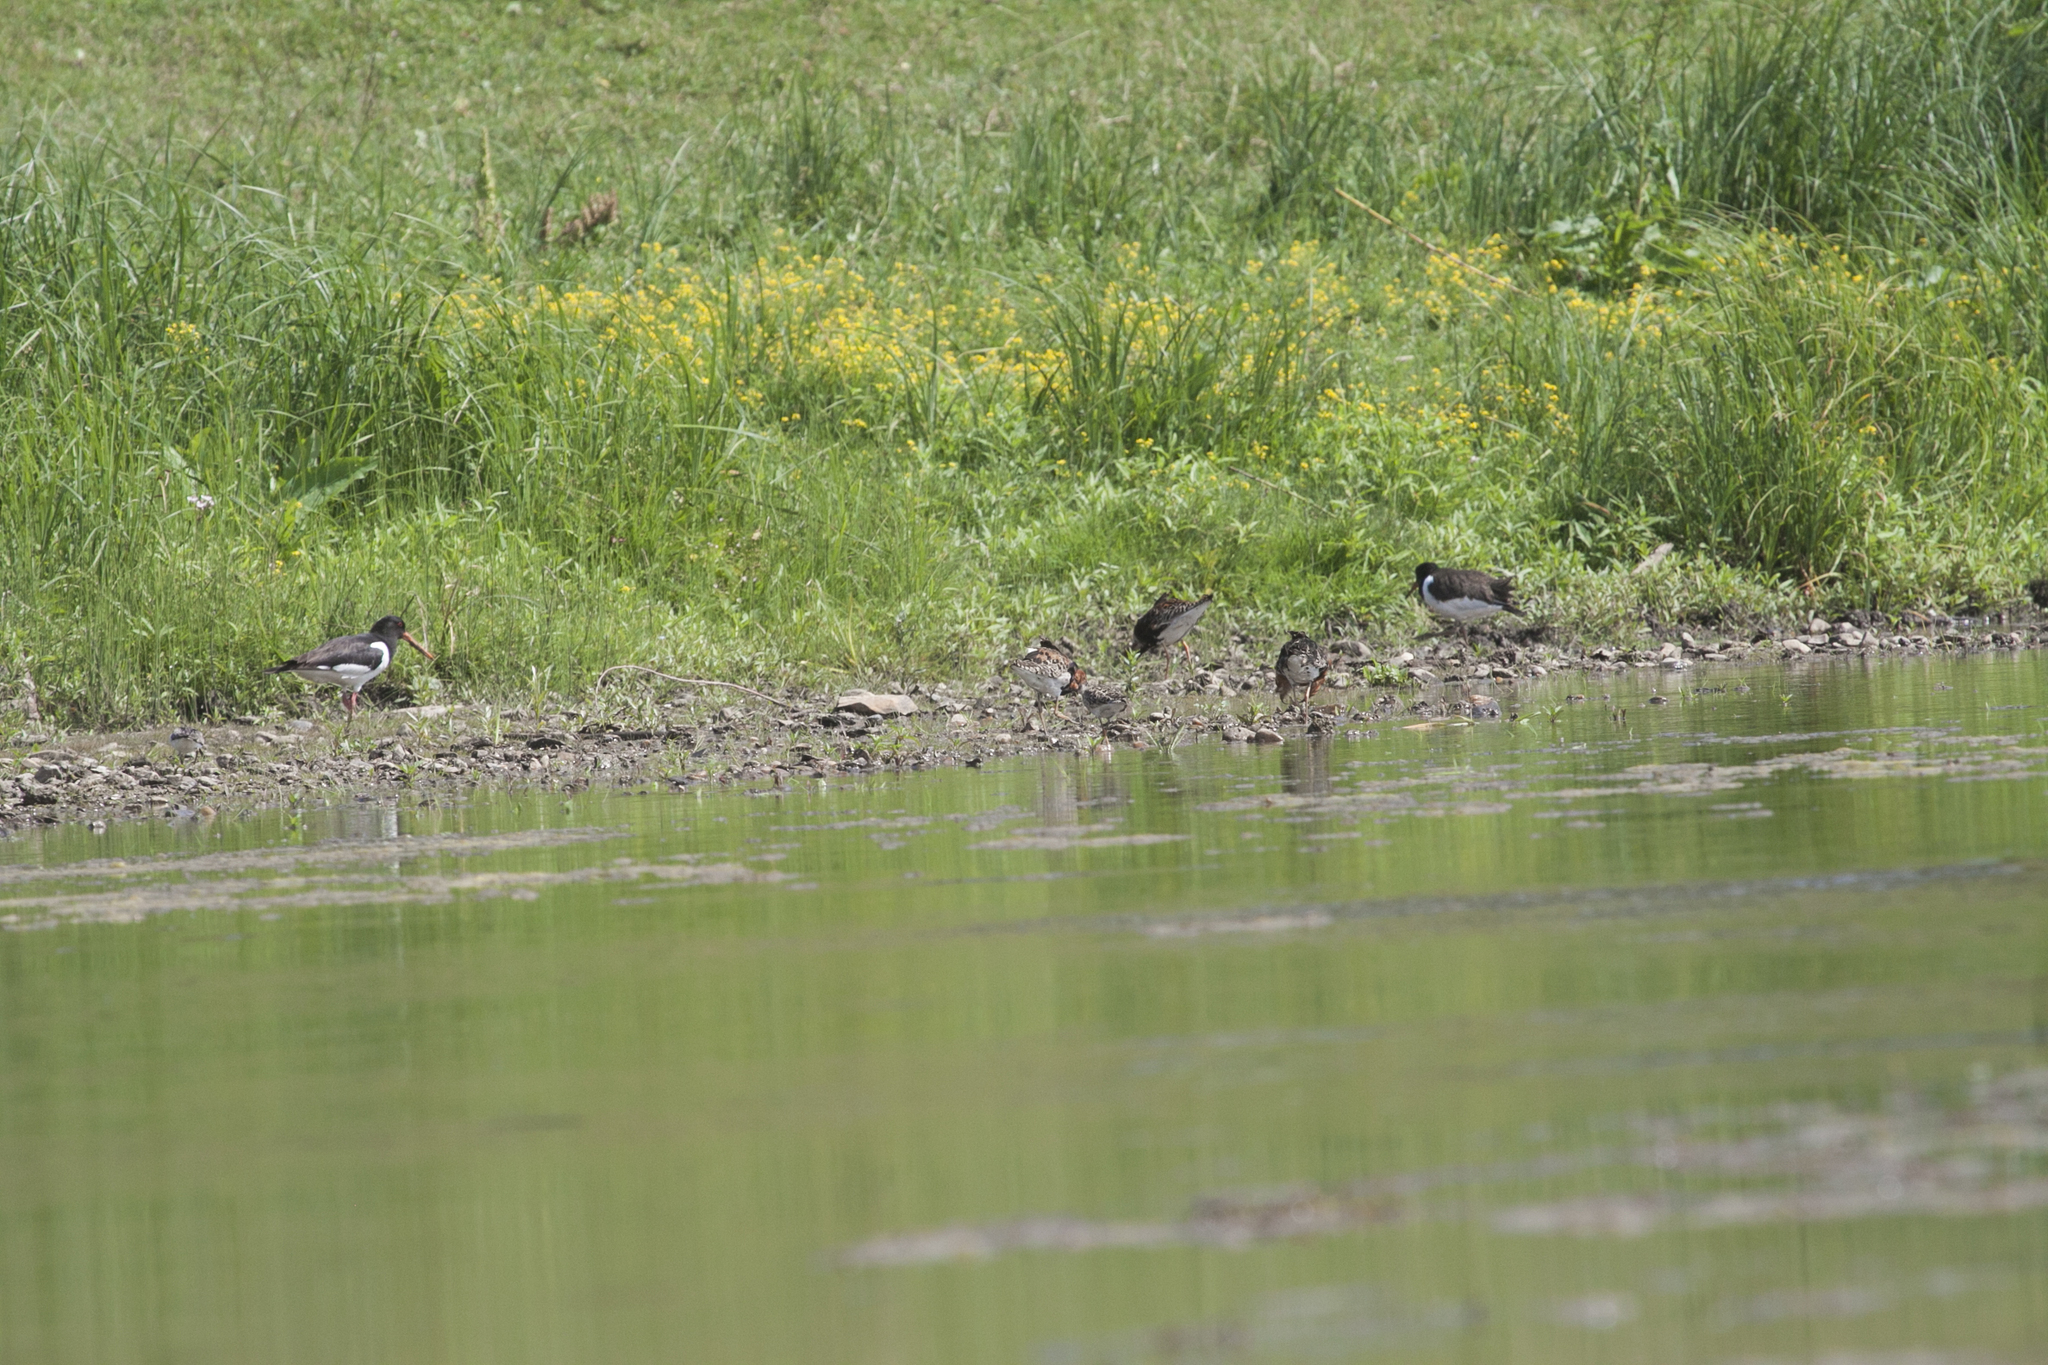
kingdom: Animalia
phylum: Chordata
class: Aves
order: Charadriiformes
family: Haematopodidae
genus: Haematopus
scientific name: Haematopus ostralegus
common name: Eurasian oystercatcher
